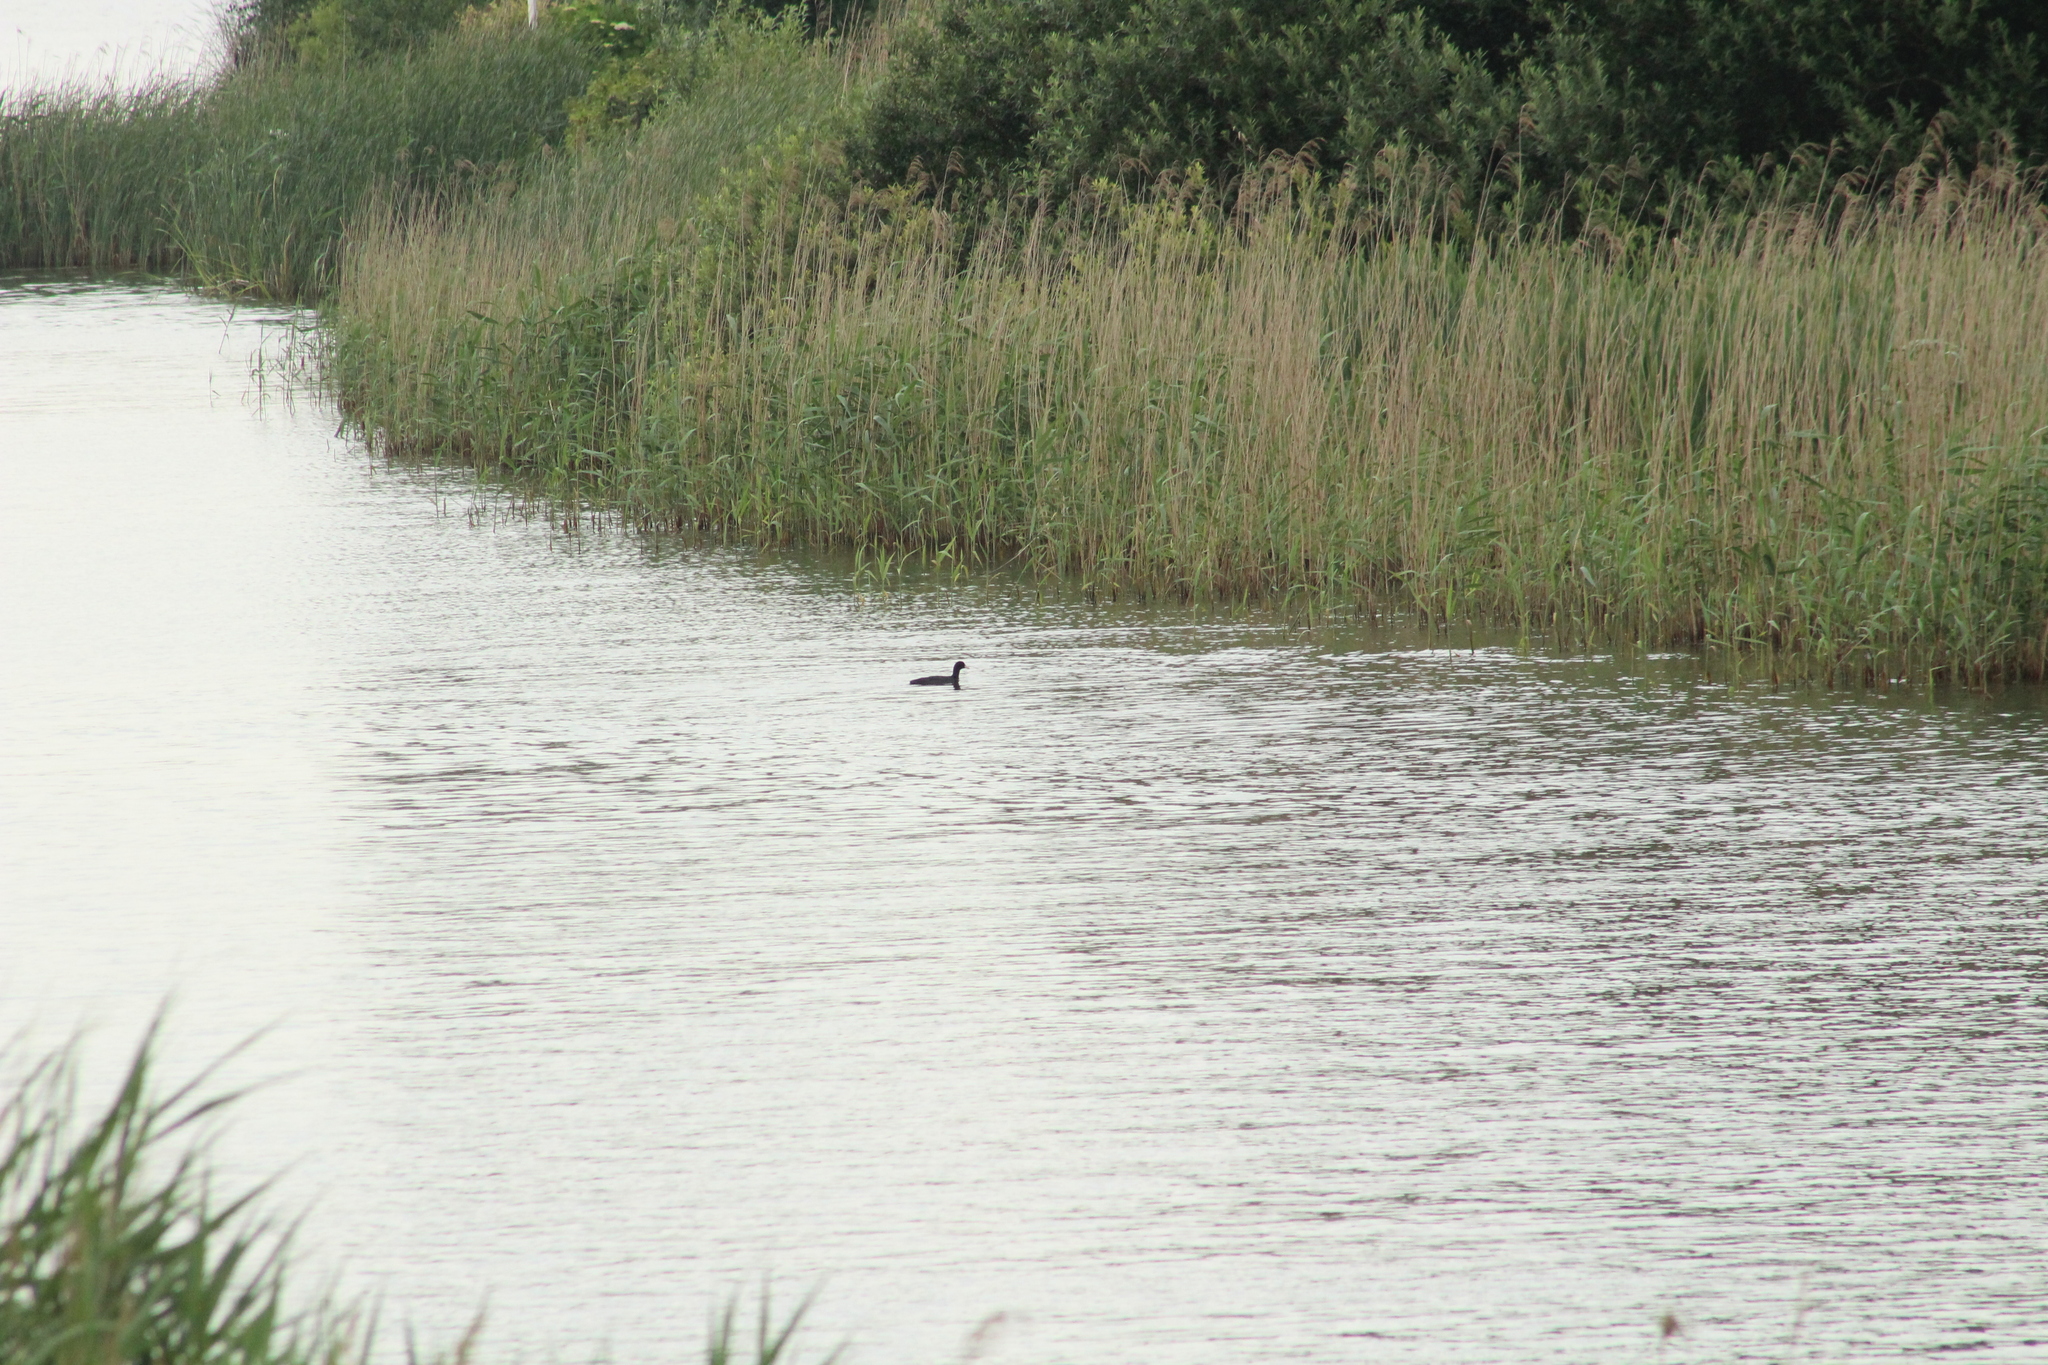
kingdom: Animalia
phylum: Chordata
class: Aves
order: Gruiformes
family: Rallidae
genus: Fulica
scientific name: Fulica atra
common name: Eurasian coot
